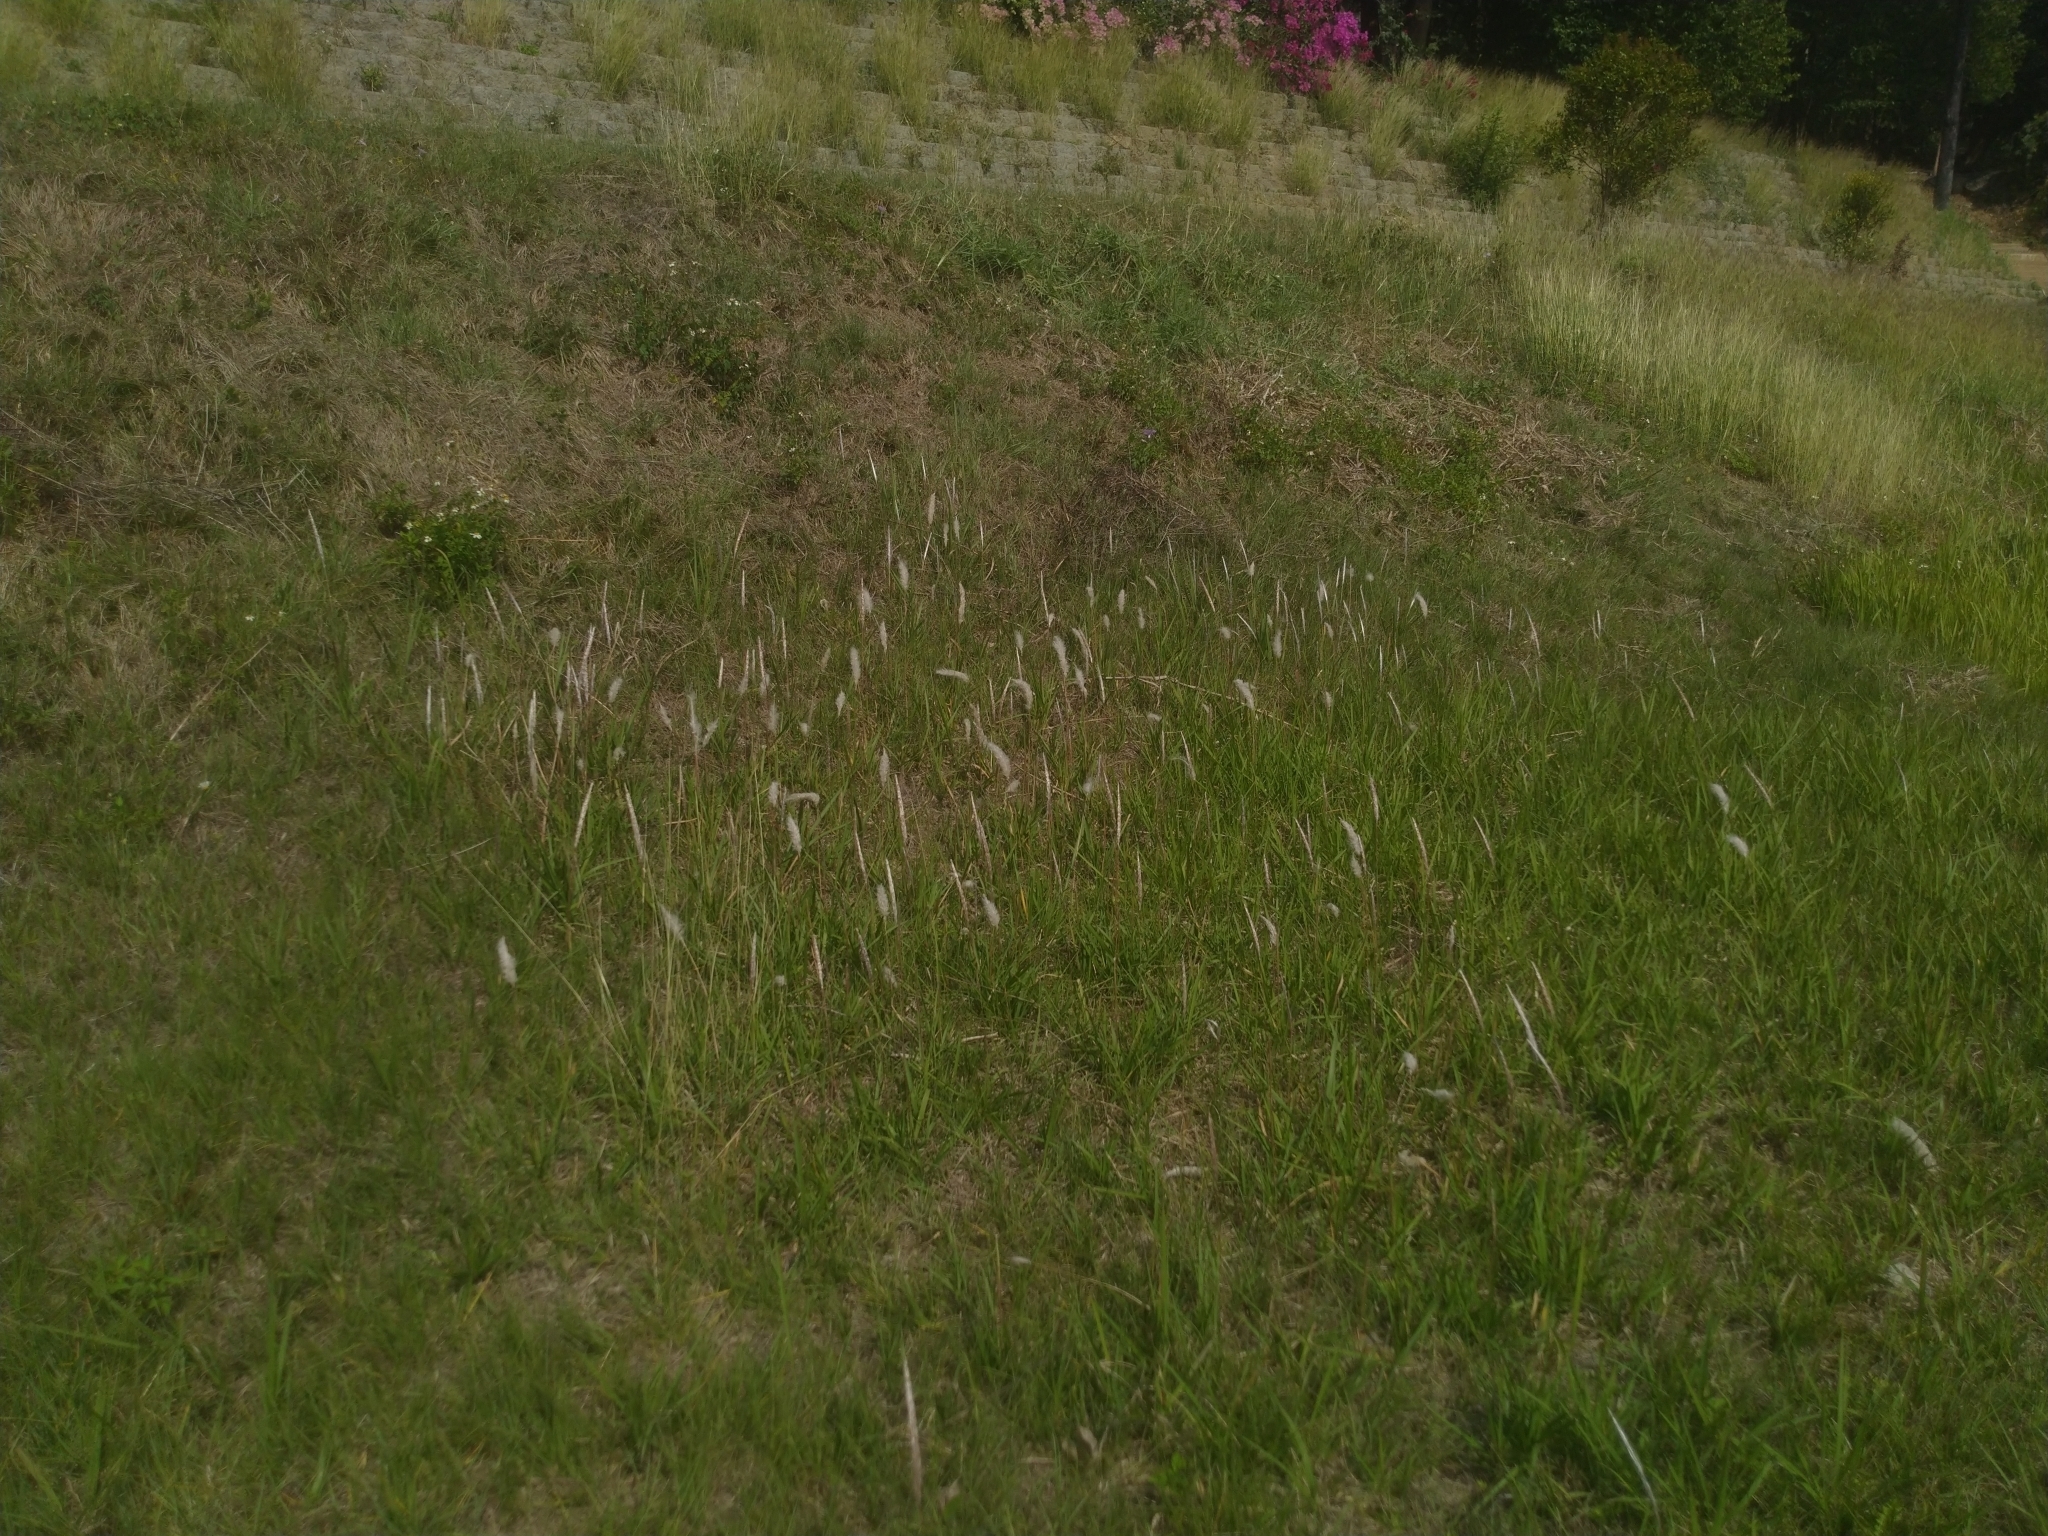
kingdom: Plantae
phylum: Tracheophyta
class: Liliopsida
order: Poales
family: Poaceae
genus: Imperata
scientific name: Imperata cylindrica
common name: Cogongrass
